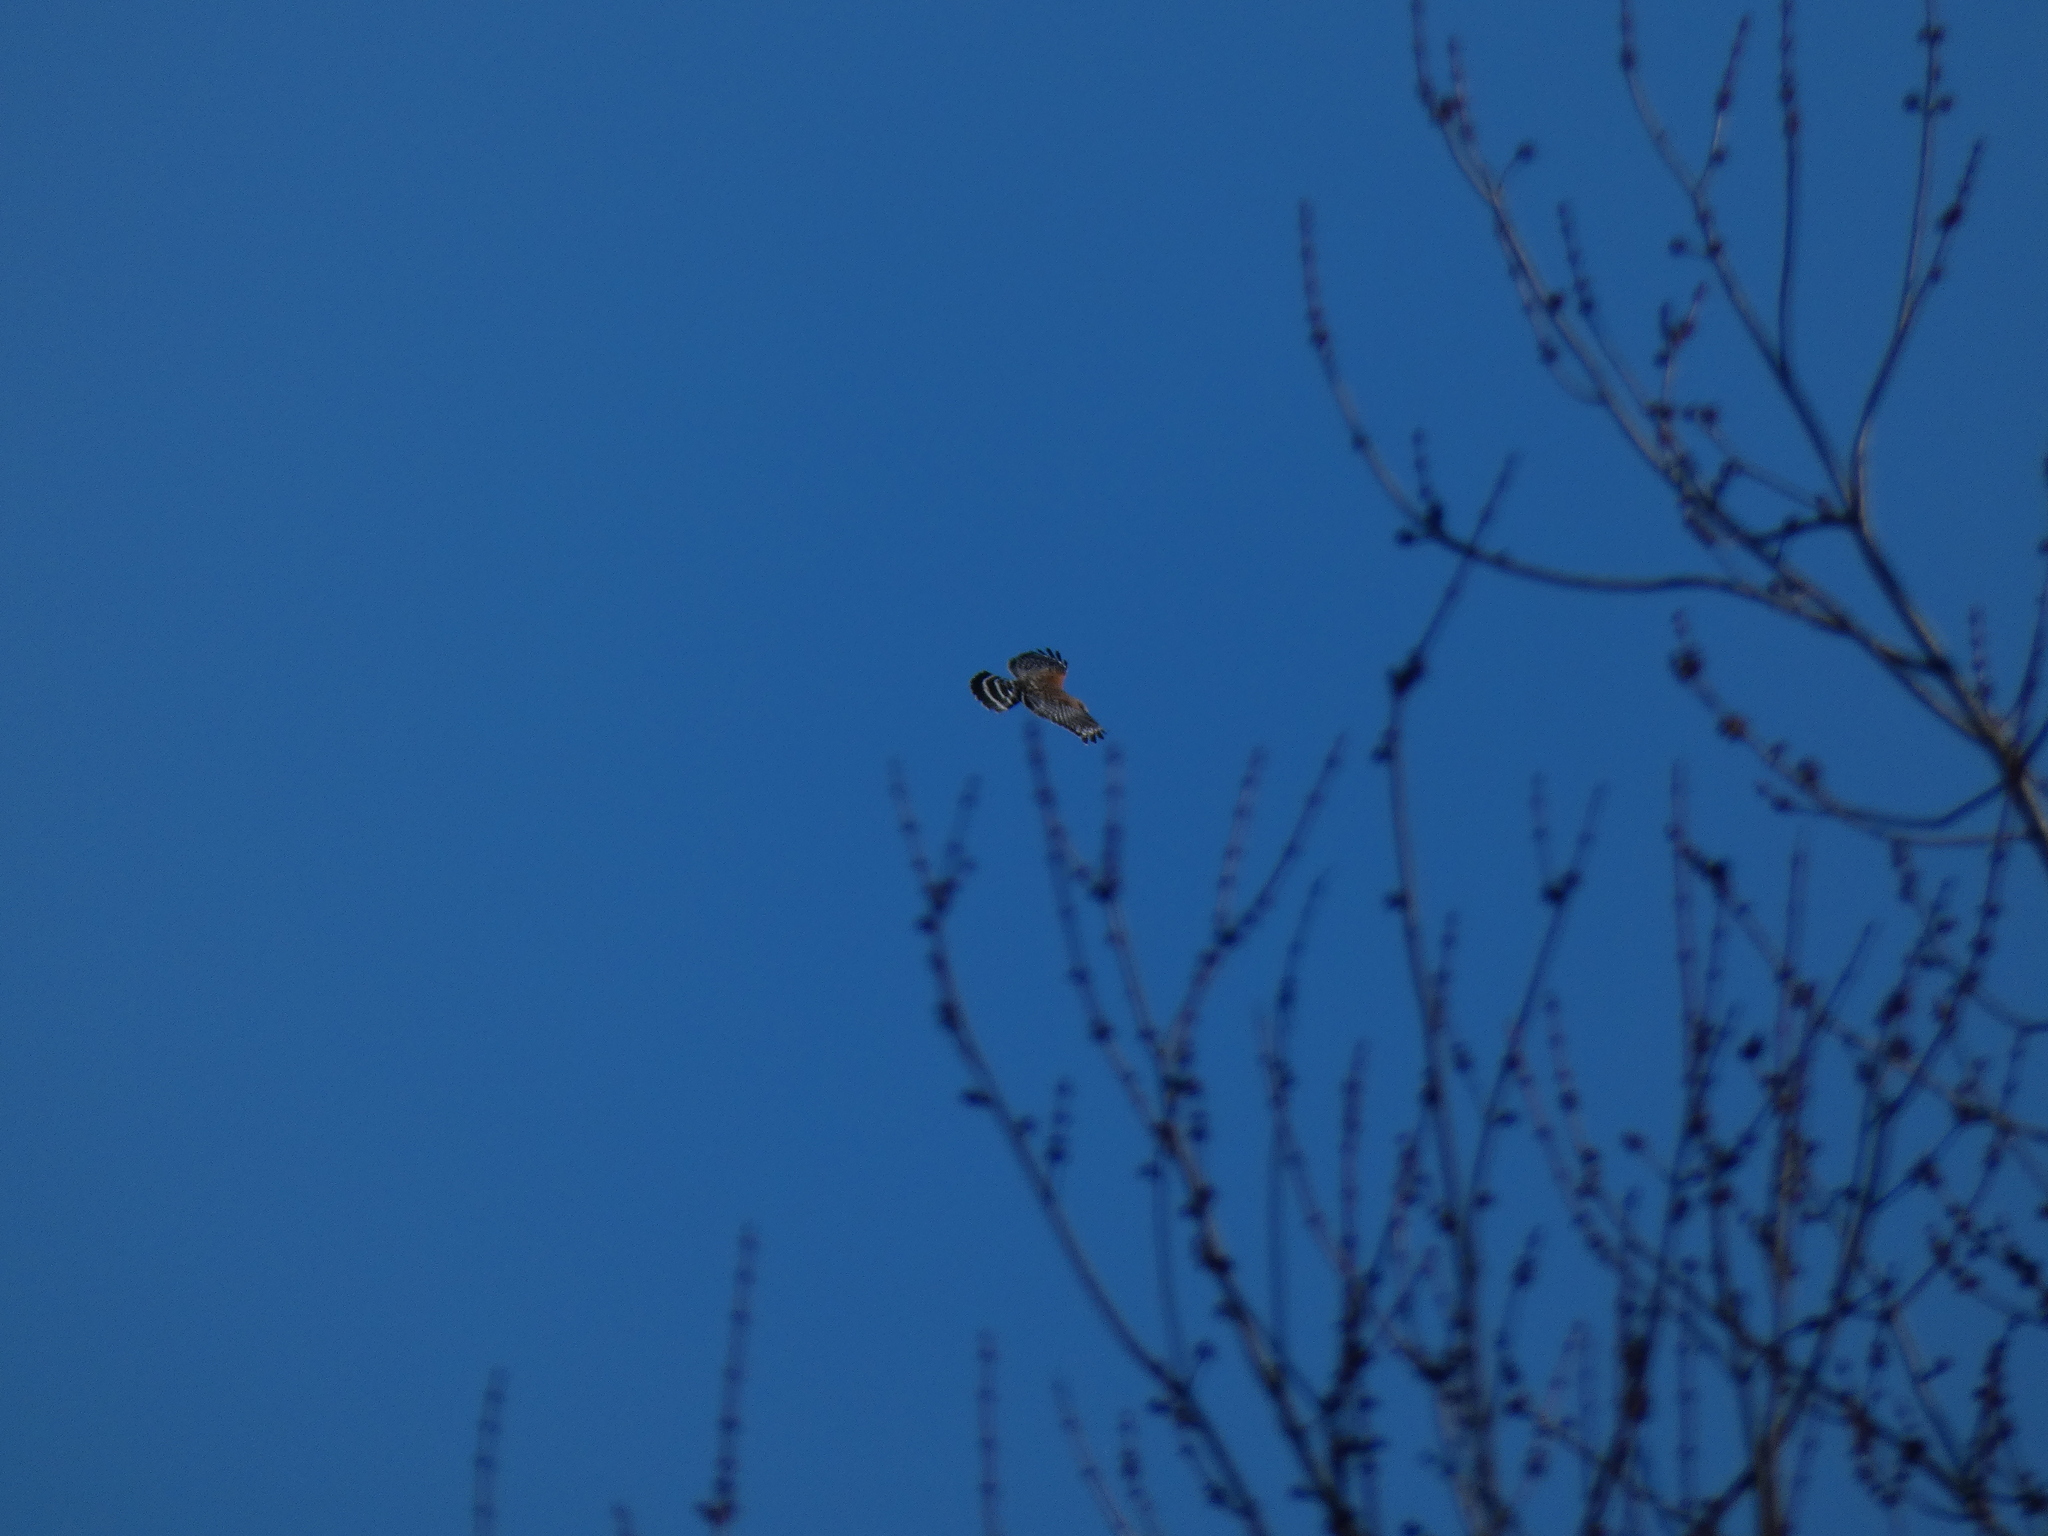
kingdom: Animalia
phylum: Chordata
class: Aves
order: Accipitriformes
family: Accipitridae
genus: Buteo
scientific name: Buteo lineatus
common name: Red-shouldered hawk
